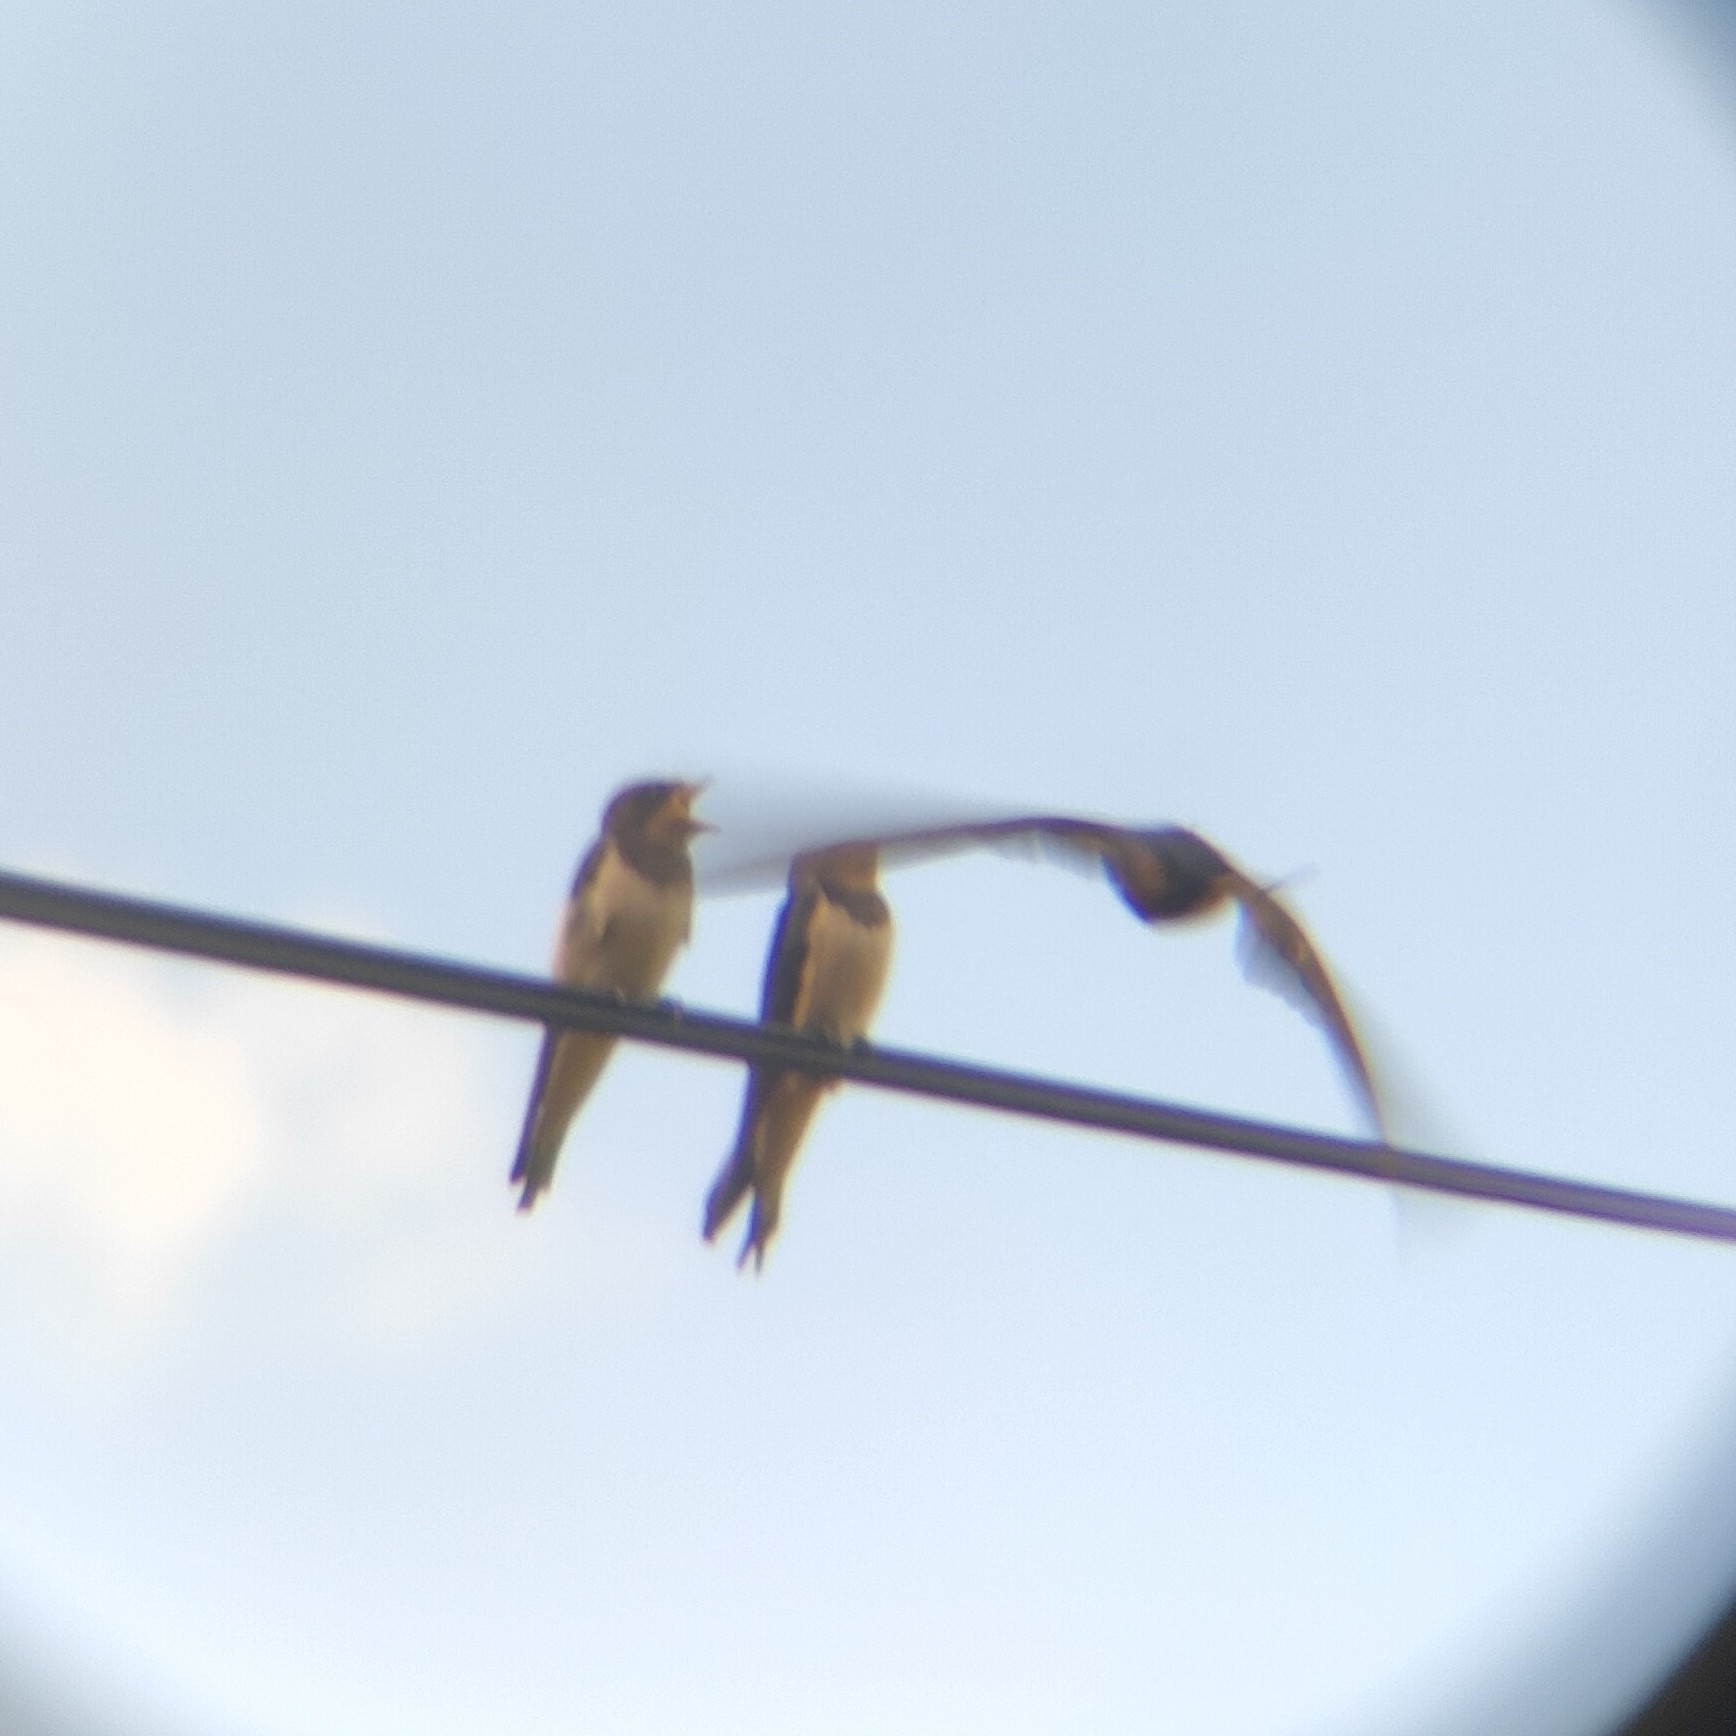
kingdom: Animalia
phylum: Chordata
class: Aves
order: Passeriformes
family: Hirundinidae
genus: Hirundo
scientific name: Hirundo rustica
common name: Barn swallow
